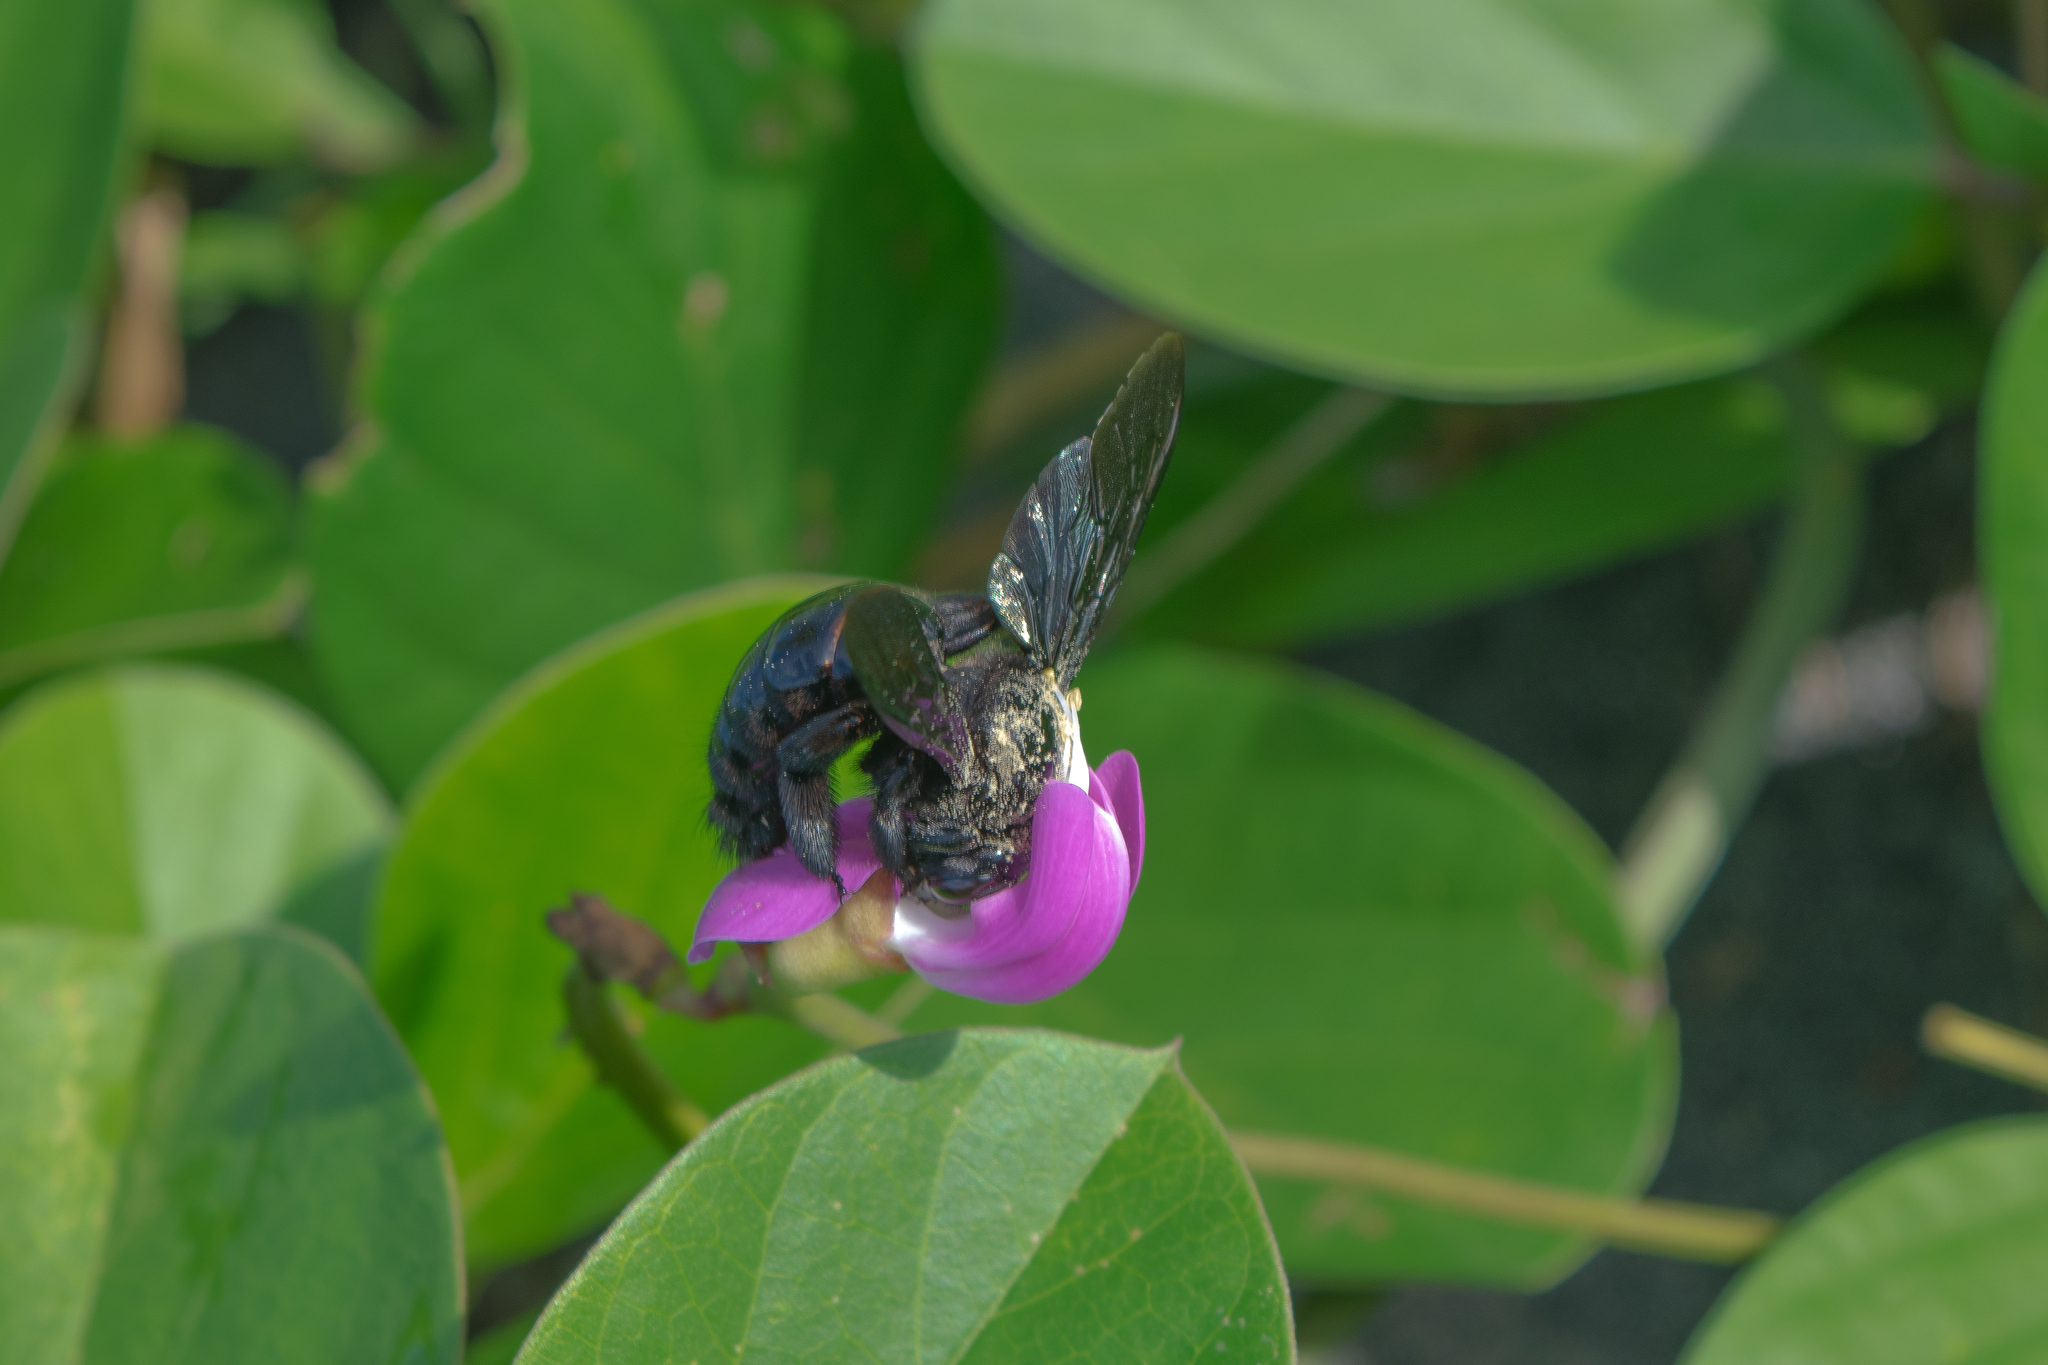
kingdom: Animalia
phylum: Arthropoda
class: Insecta
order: Hymenoptera
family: Apidae
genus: Xylocopa
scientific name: Xylocopa fimbriata
